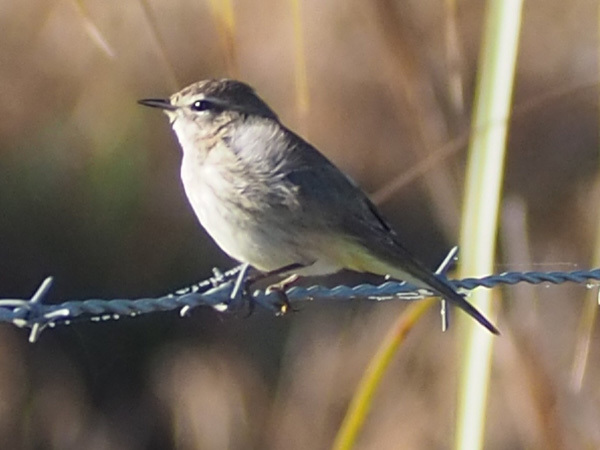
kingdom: Animalia
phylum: Chordata
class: Aves
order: Passeriformes
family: Parulidae
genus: Setophaga
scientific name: Setophaga palmarum
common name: Palm warbler
